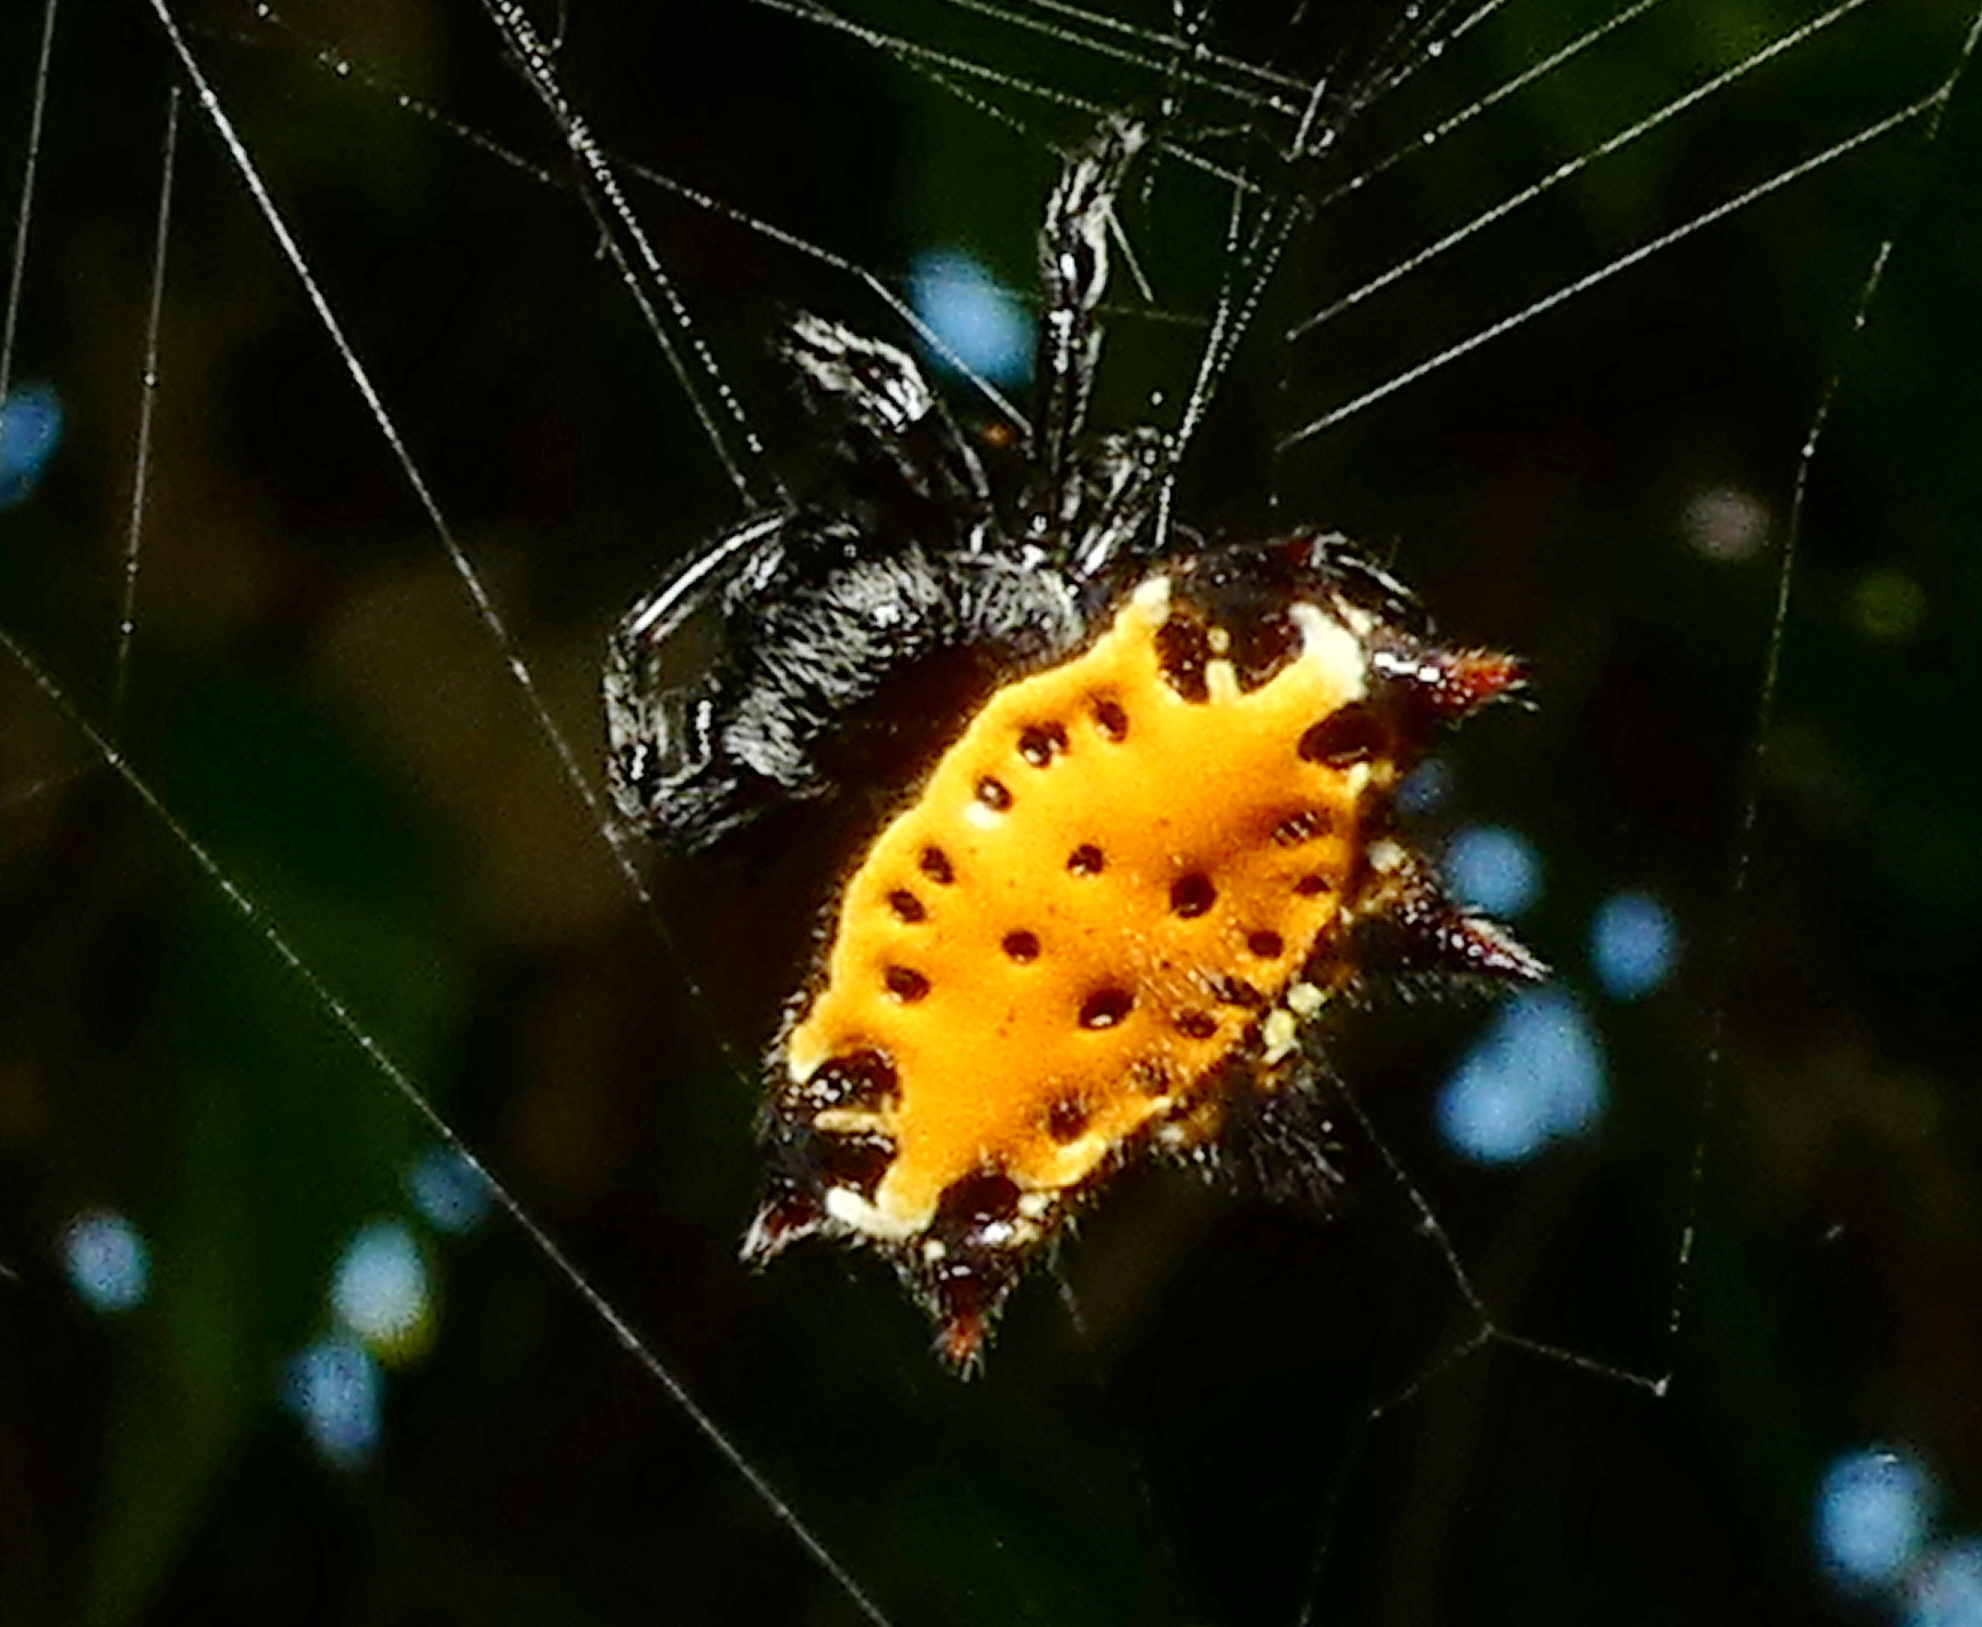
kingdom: Animalia
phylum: Arthropoda
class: Arachnida
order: Araneae
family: Araneidae
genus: Gasteracantha
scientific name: Gasteracantha cancriformis
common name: Orb weavers
